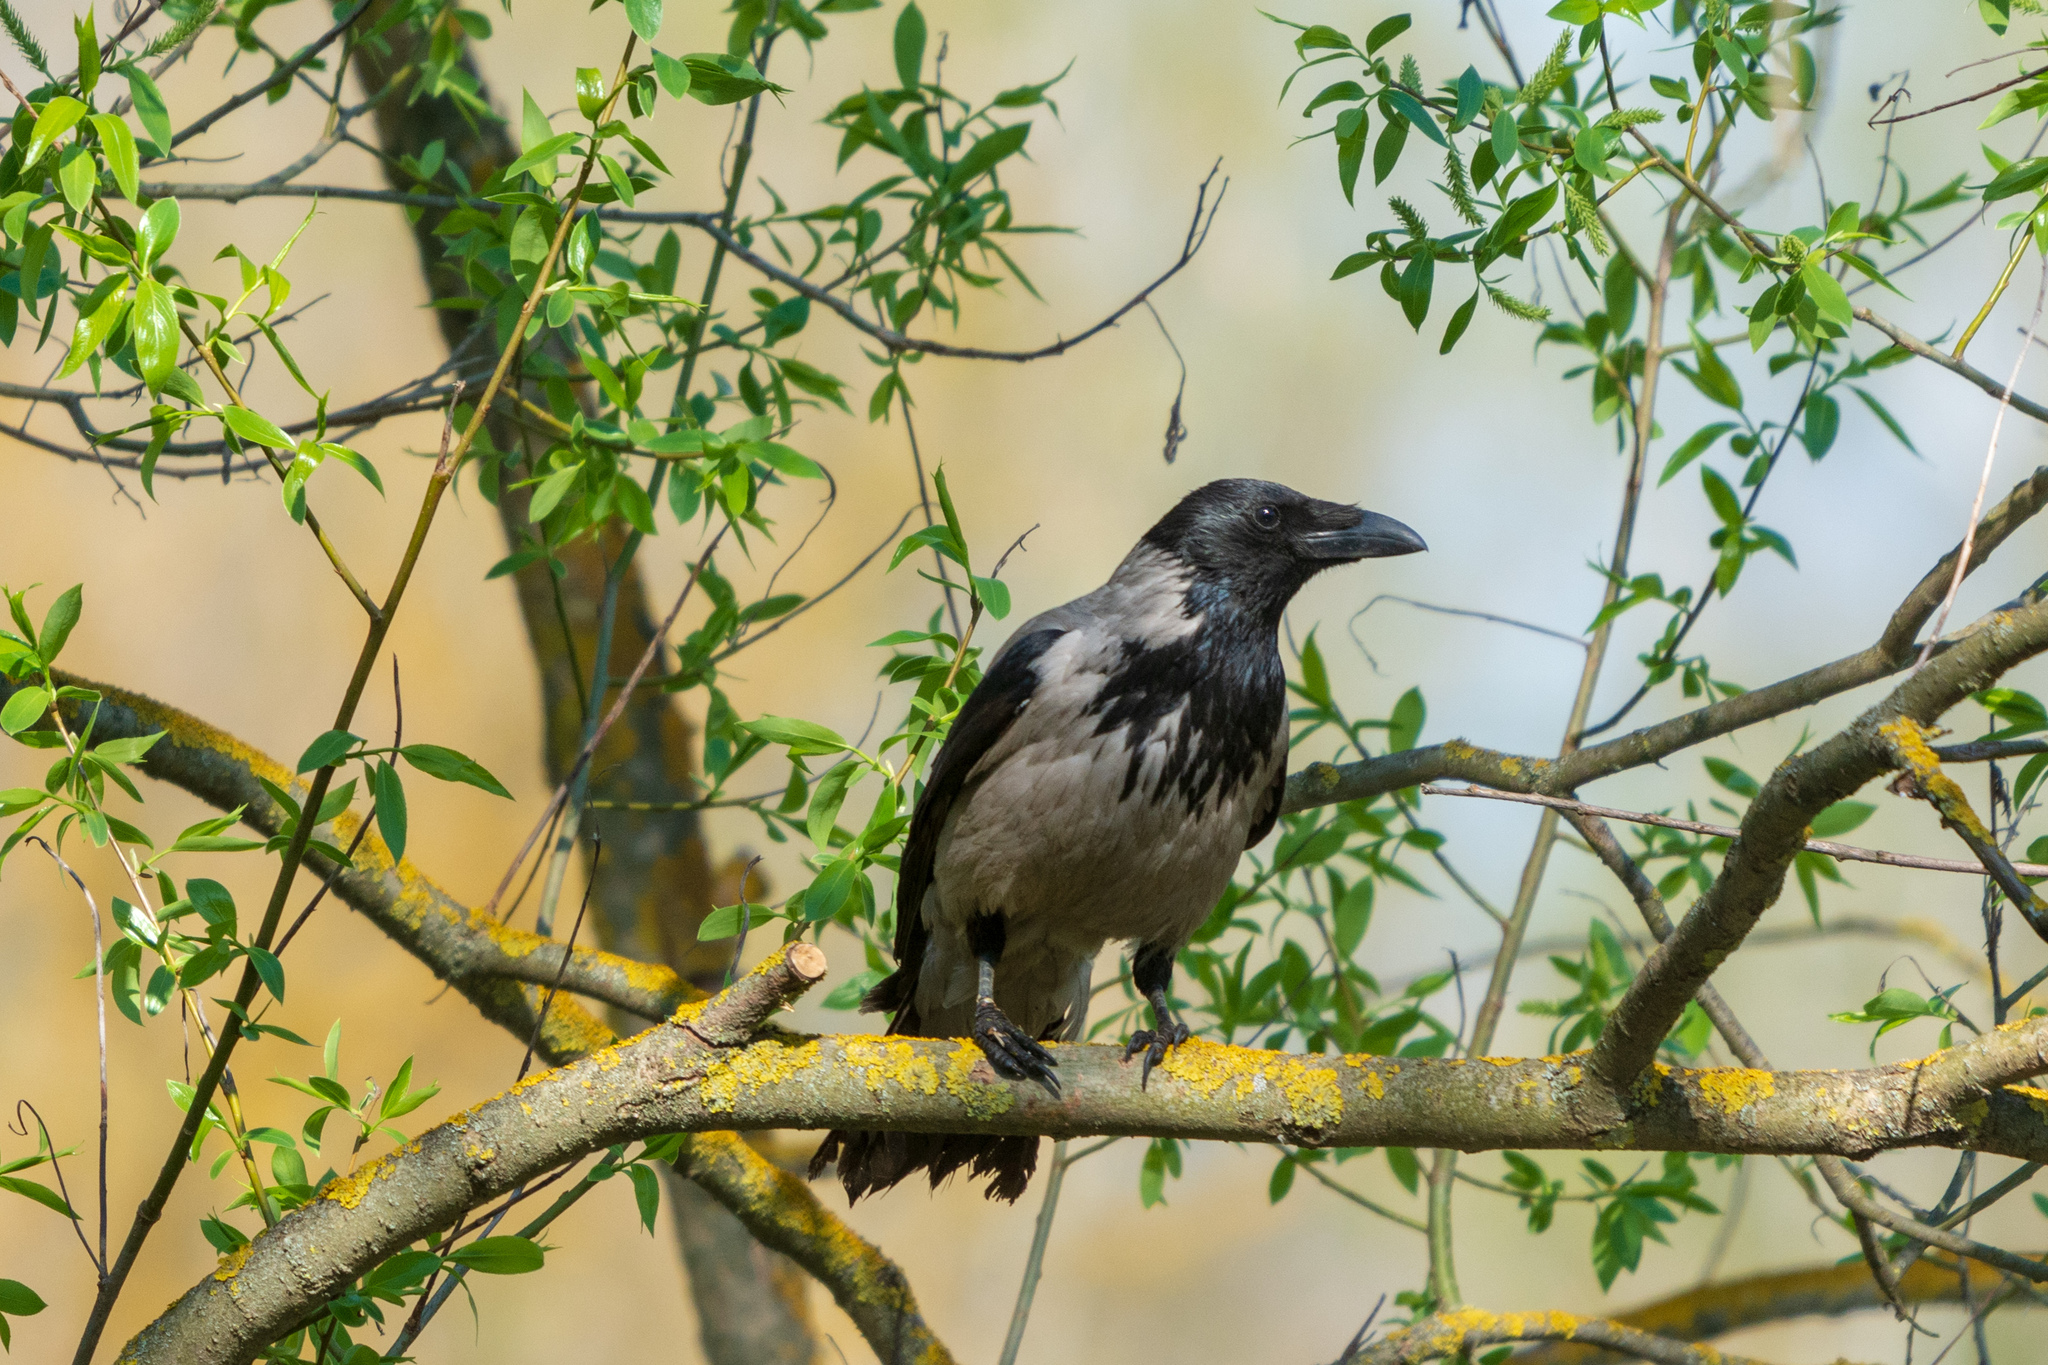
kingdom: Animalia
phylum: Chordata
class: Aves
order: Passeriformes
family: Corvidae
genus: Corvus
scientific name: Corvus cornix
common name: Hooded crow
